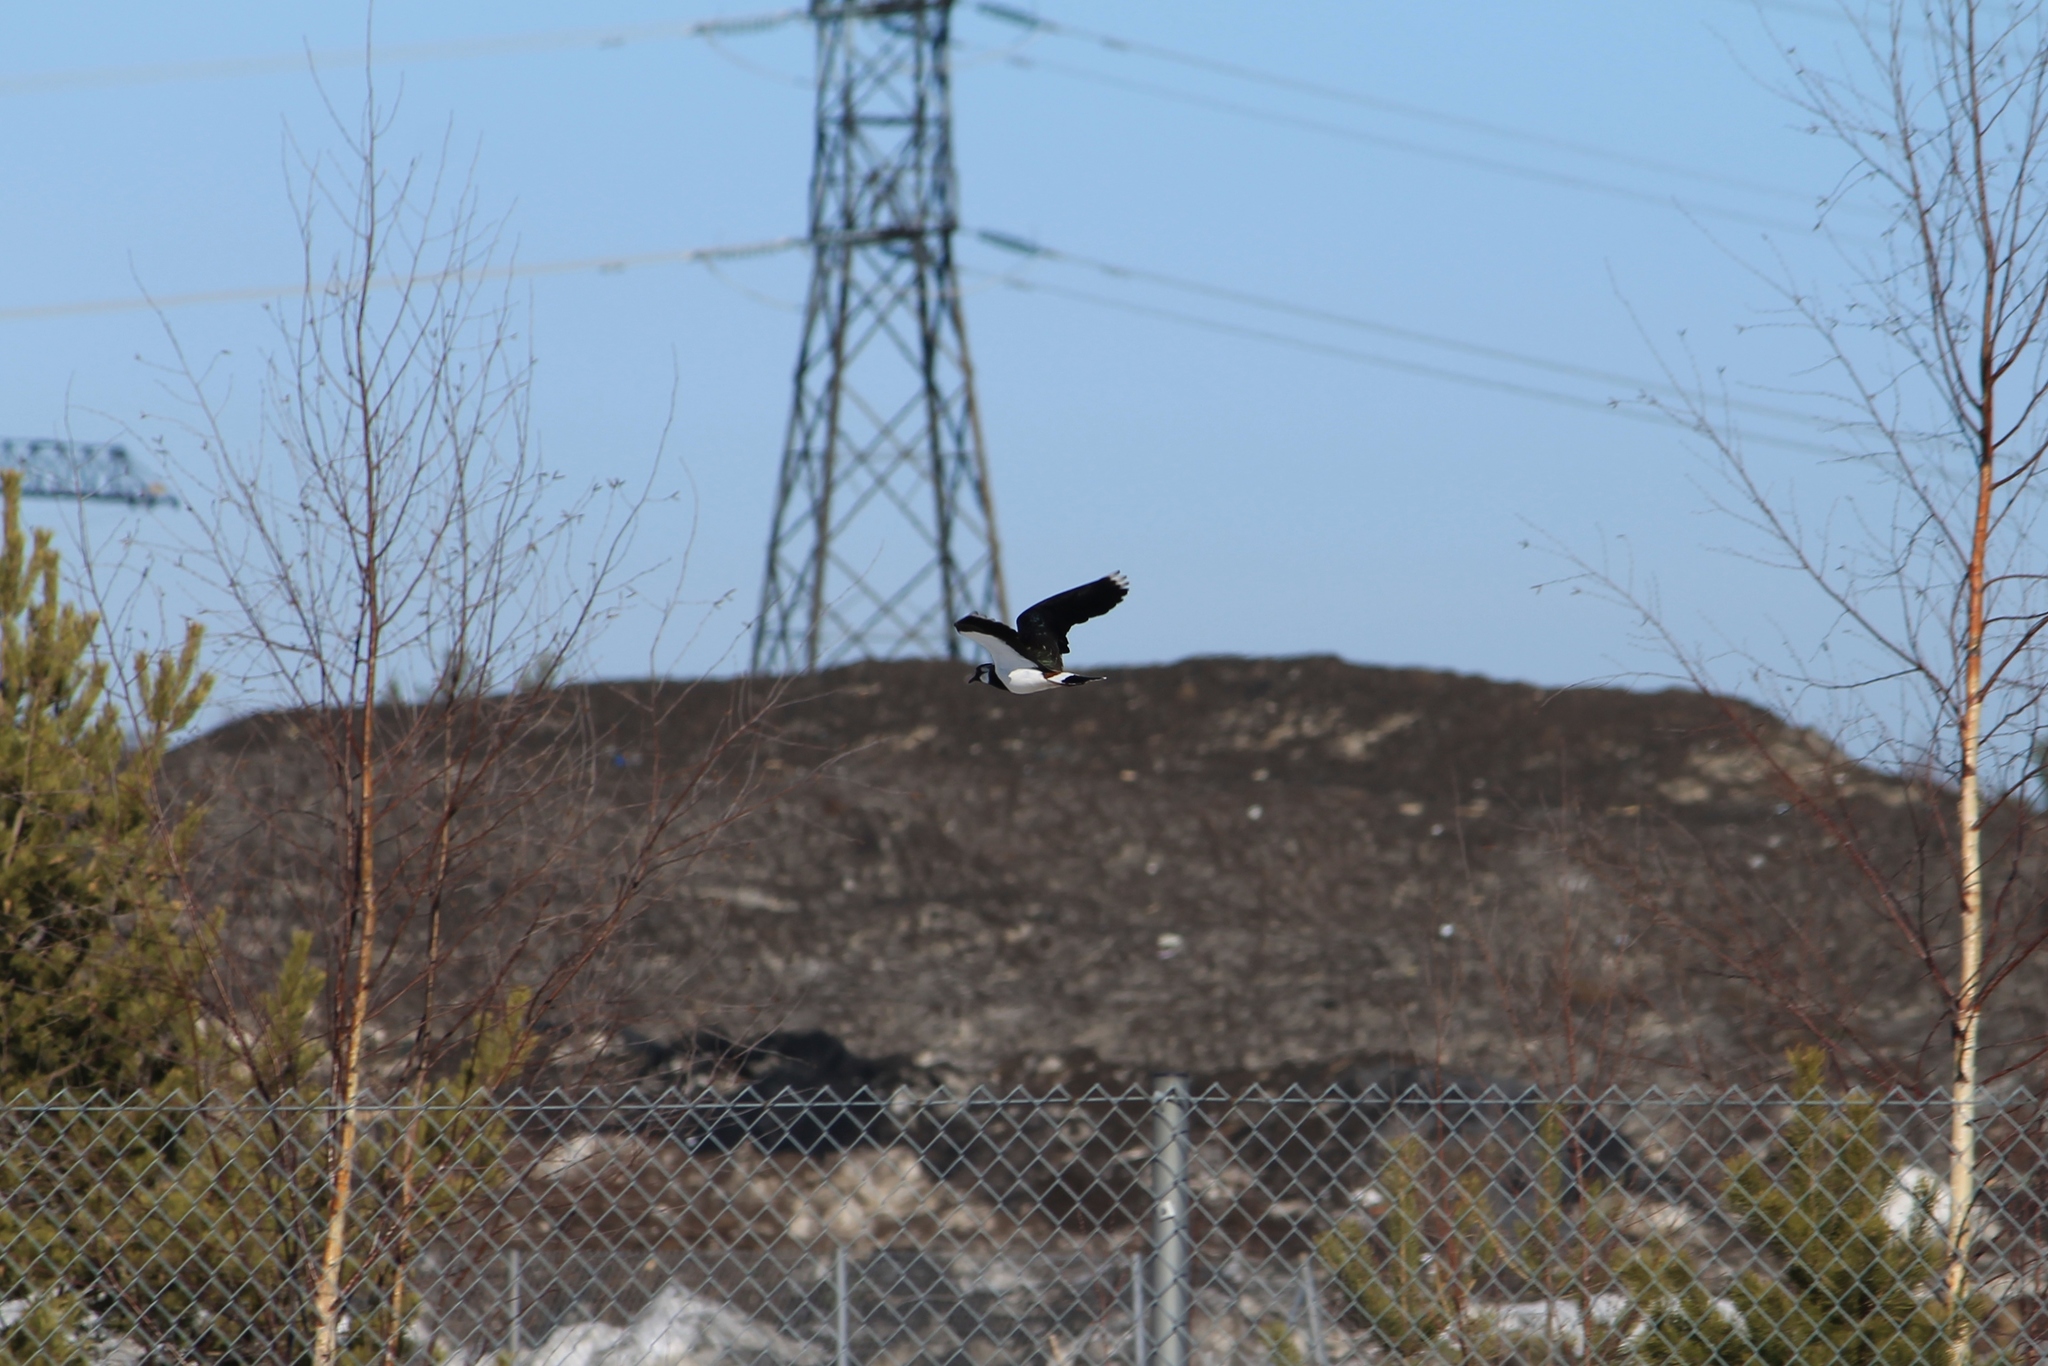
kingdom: Animalia
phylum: Chordata
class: Aves
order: Charadriiformes
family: Charadriidae
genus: Vanellus
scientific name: Vanellus vanellus
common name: Northern lapwing
